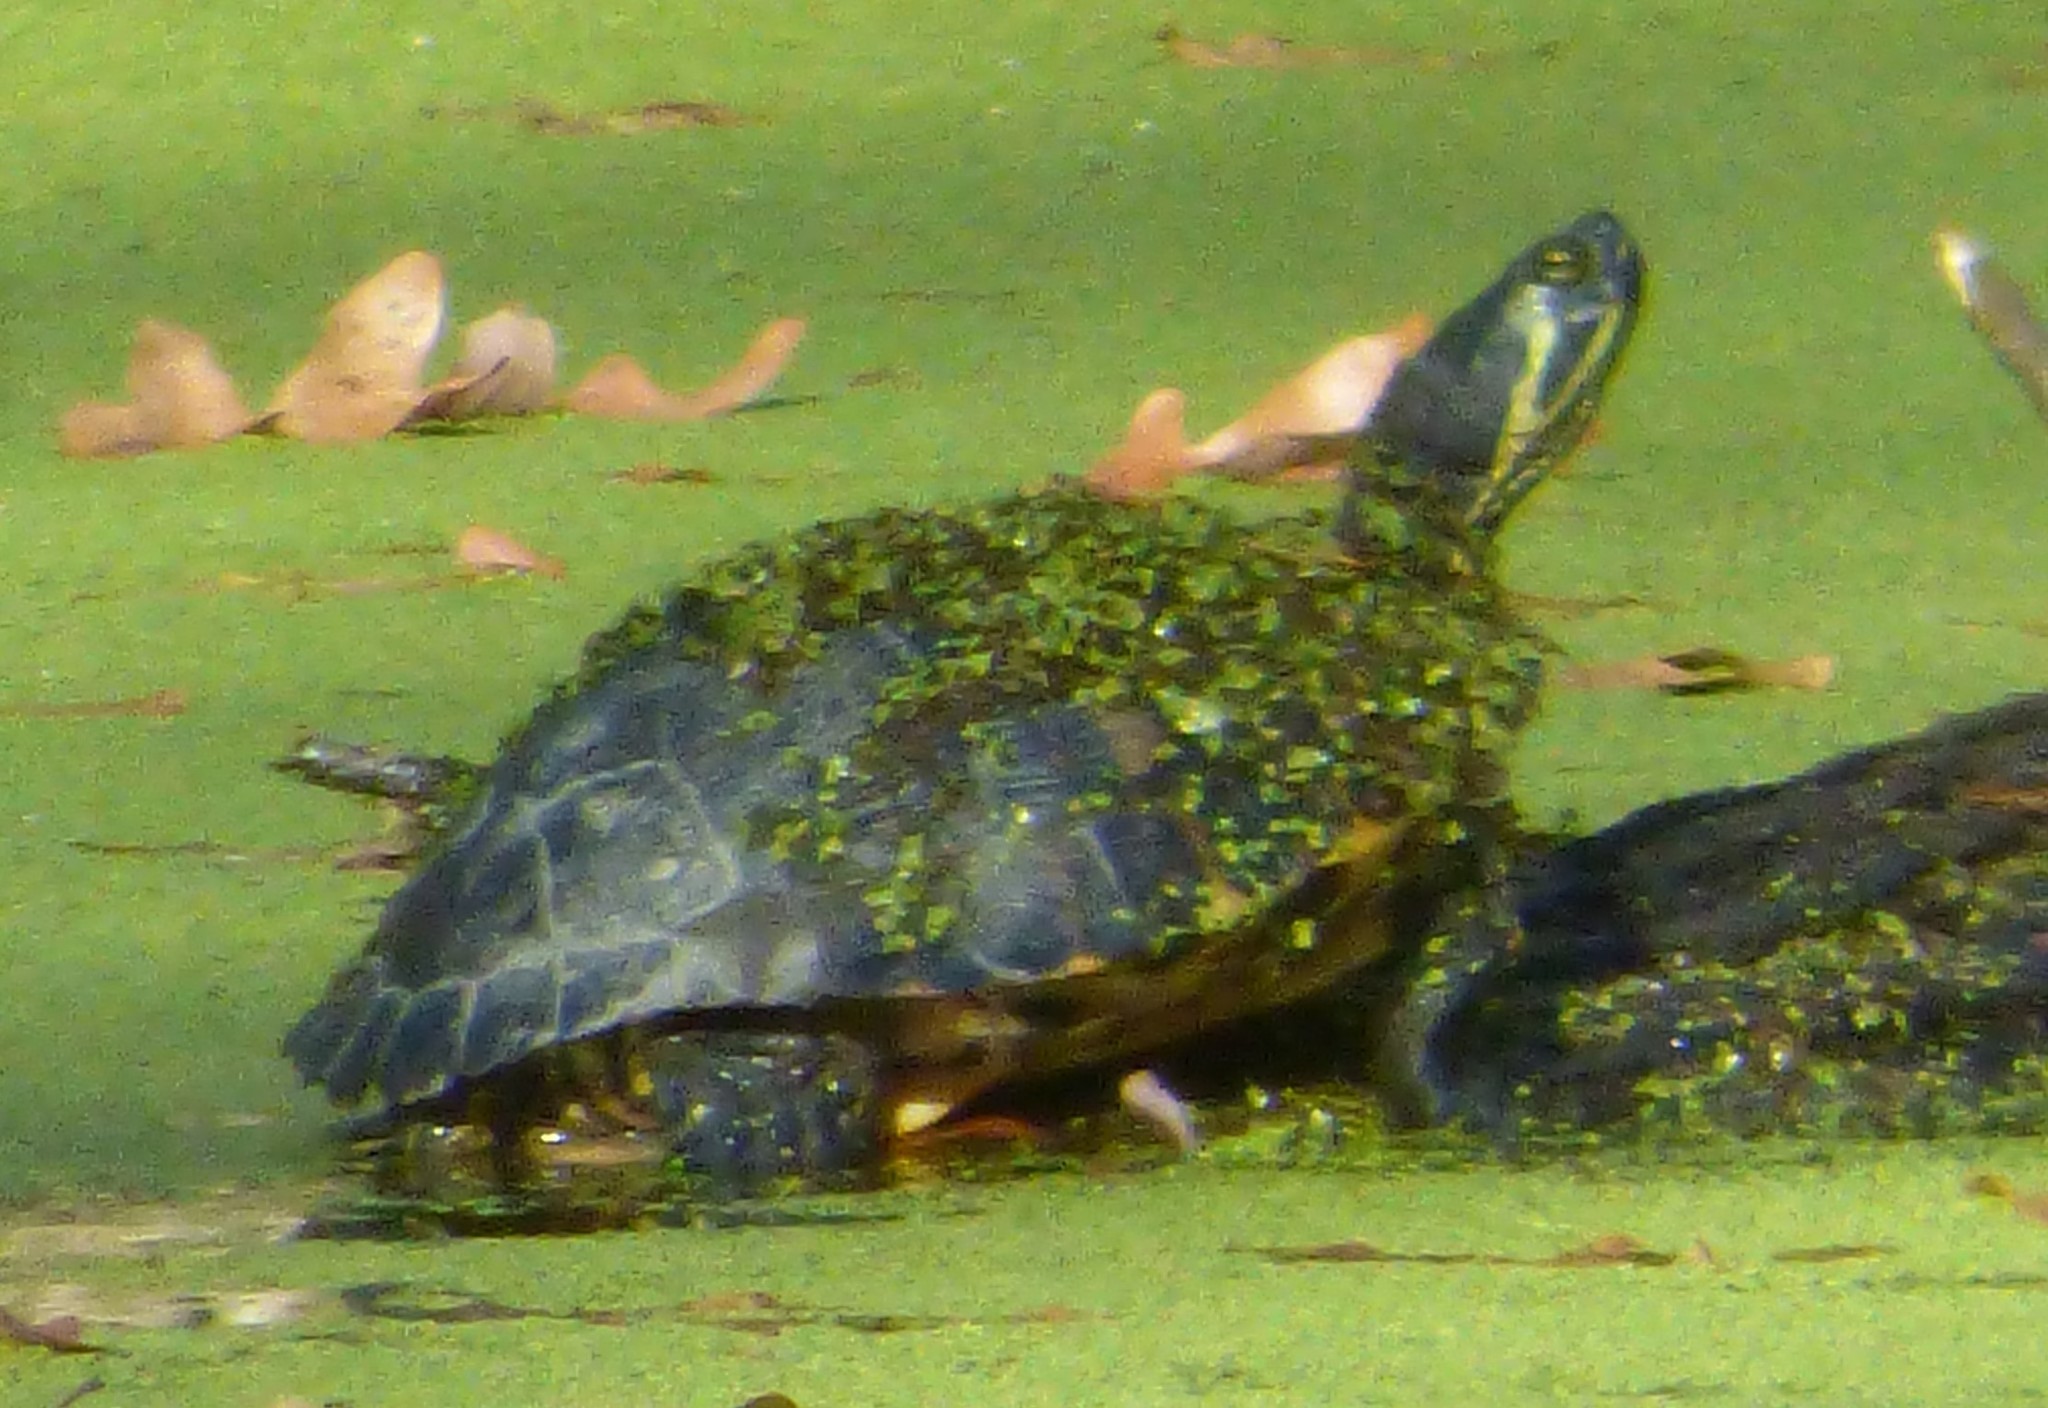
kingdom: Animalia
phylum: Chordata
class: Testudines
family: Emydidae
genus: Trachemys
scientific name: Trachemys scripta
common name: Slider
